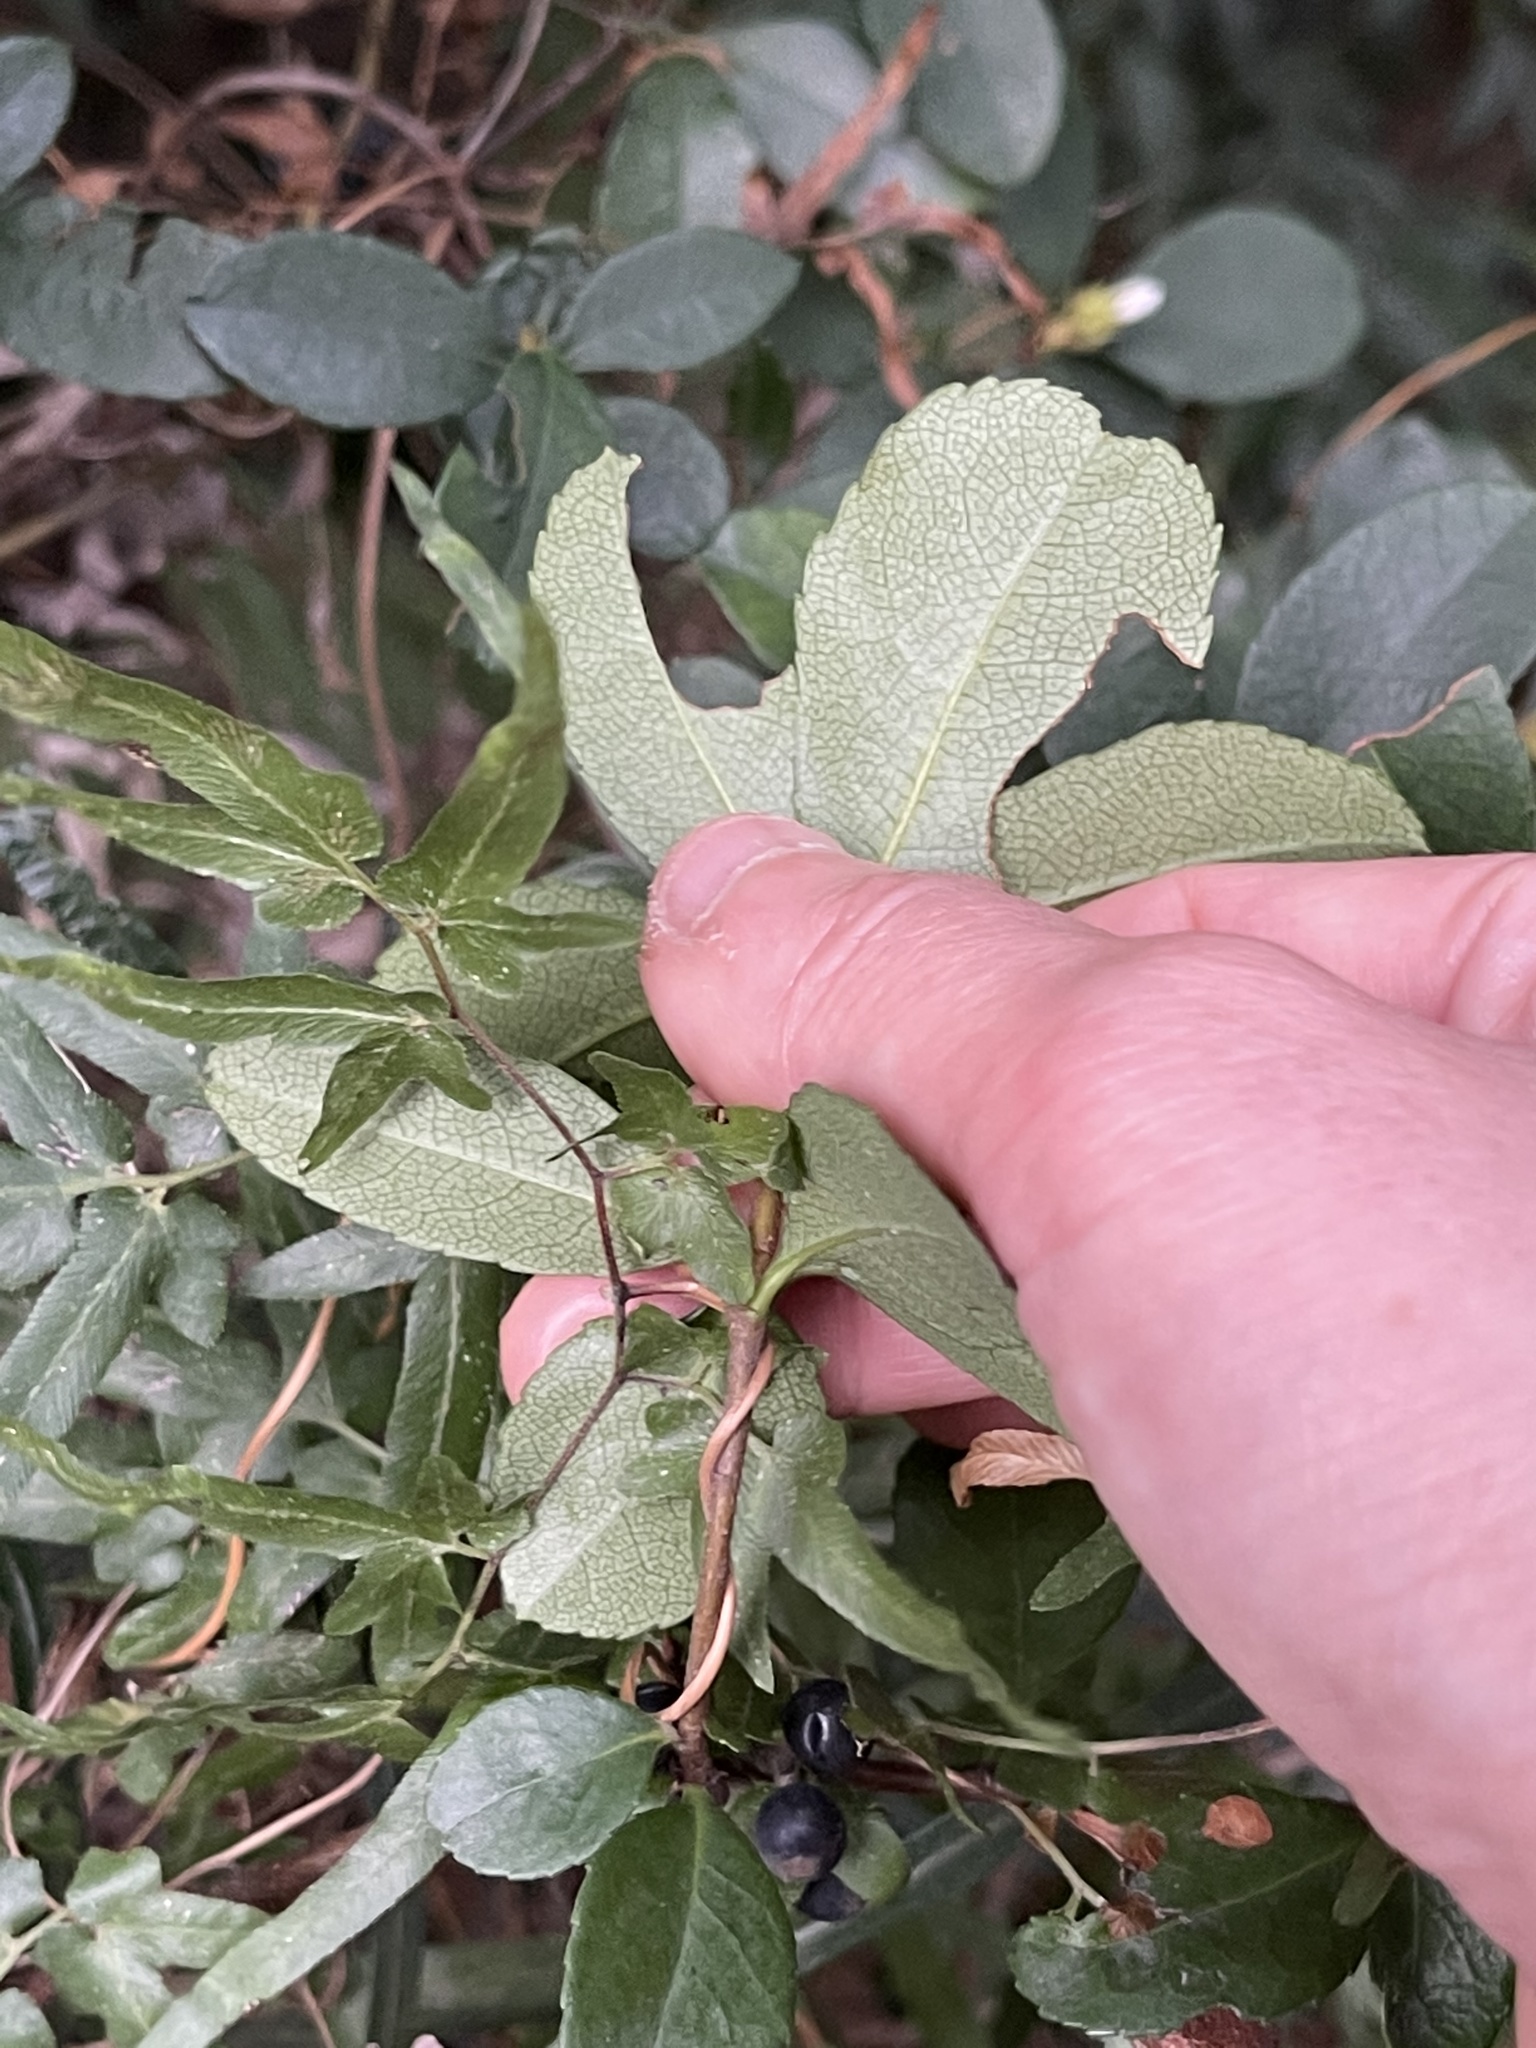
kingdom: Plantae
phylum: Tracheophyta
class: Magnoliopsida
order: Rosales
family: Rosaceae
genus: Rhaphiolepis
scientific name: Rhaphiolepis indica
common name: India-hawthorn
